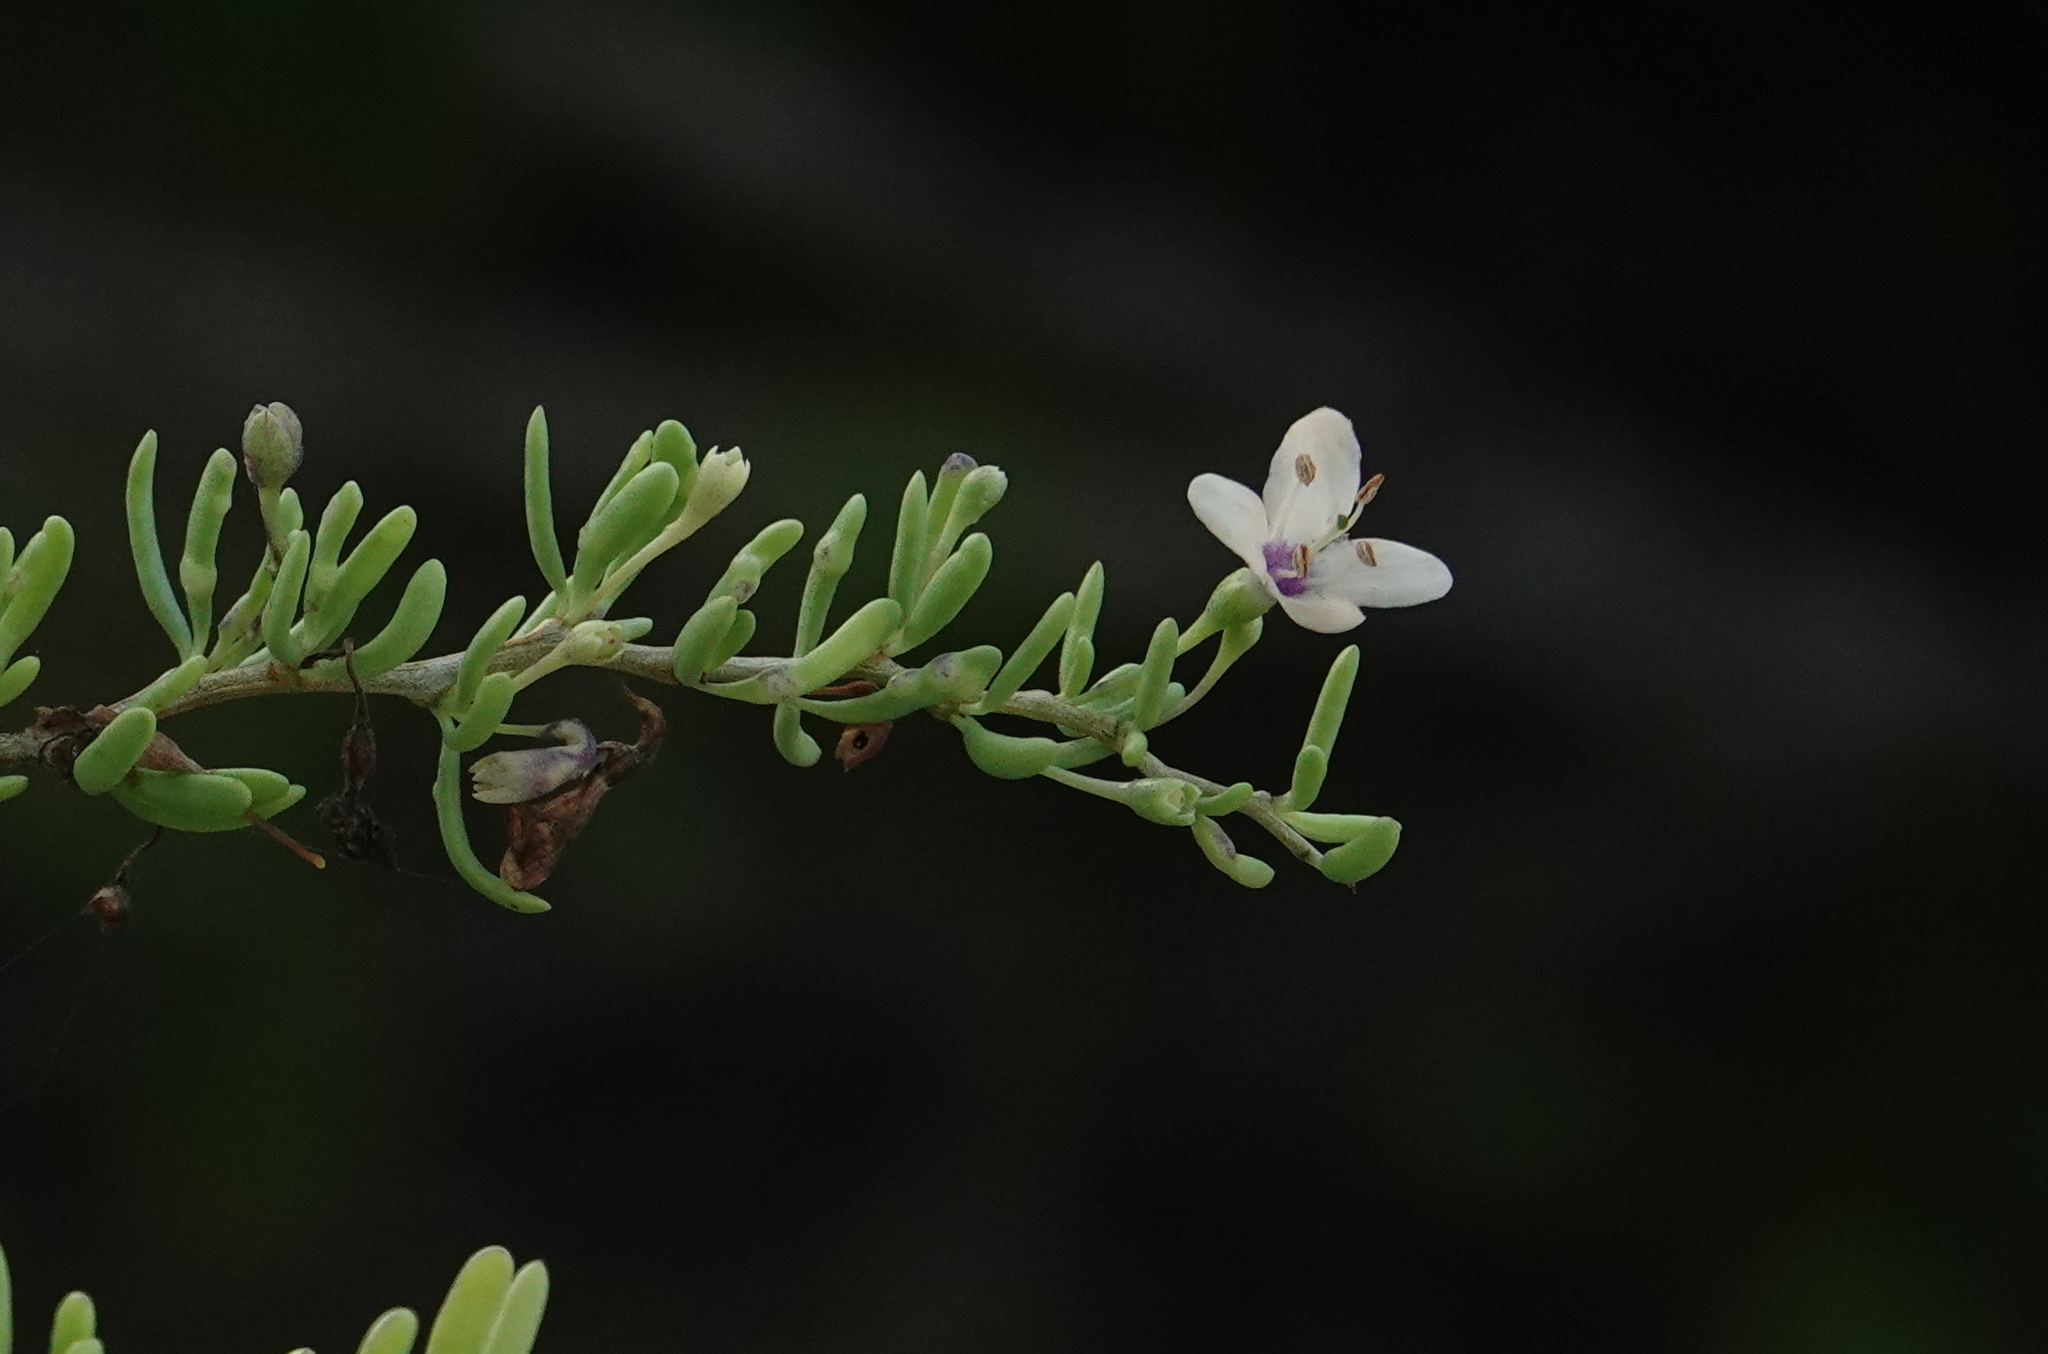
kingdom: Plantae
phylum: Tracheophyta
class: Magnoliopsida
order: Solanales
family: Solanaceae
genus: Lycium
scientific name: Lycium carolinianum
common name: Christmasberry
